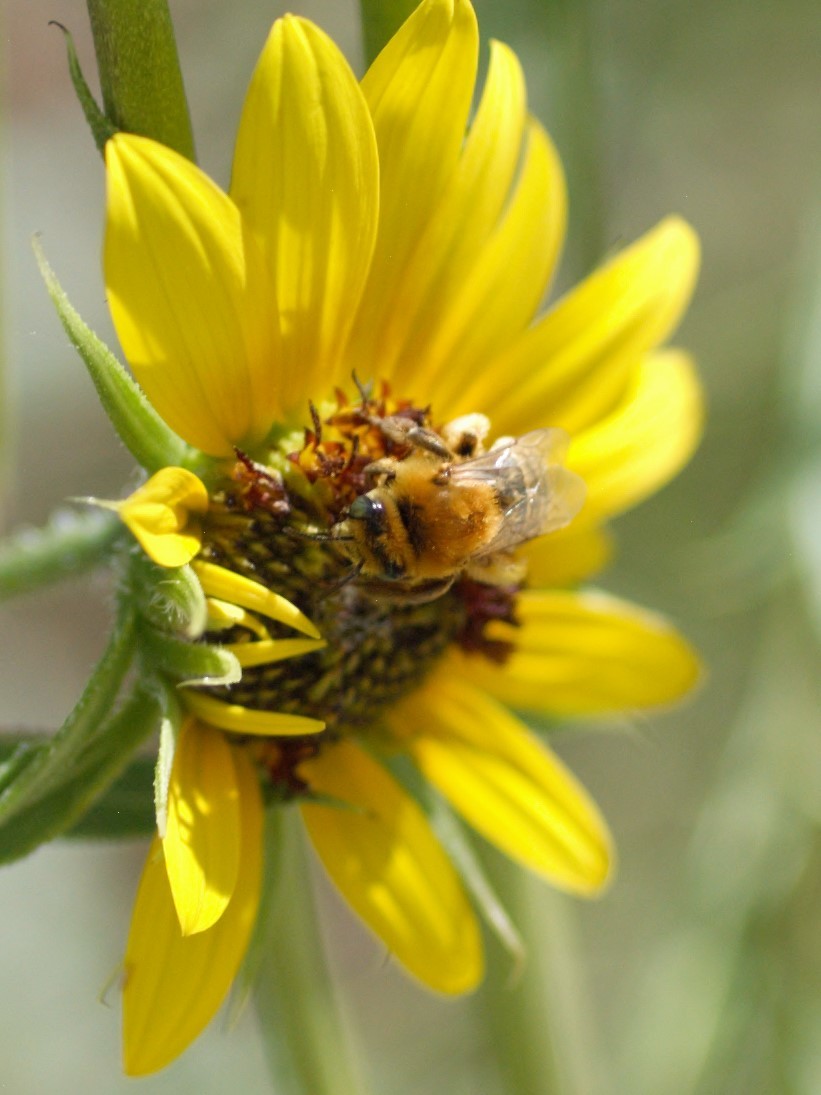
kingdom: Animalia
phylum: Arthropoda
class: Insecta
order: Hymenoptera
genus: Eumelissodes
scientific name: Eumelissodes
